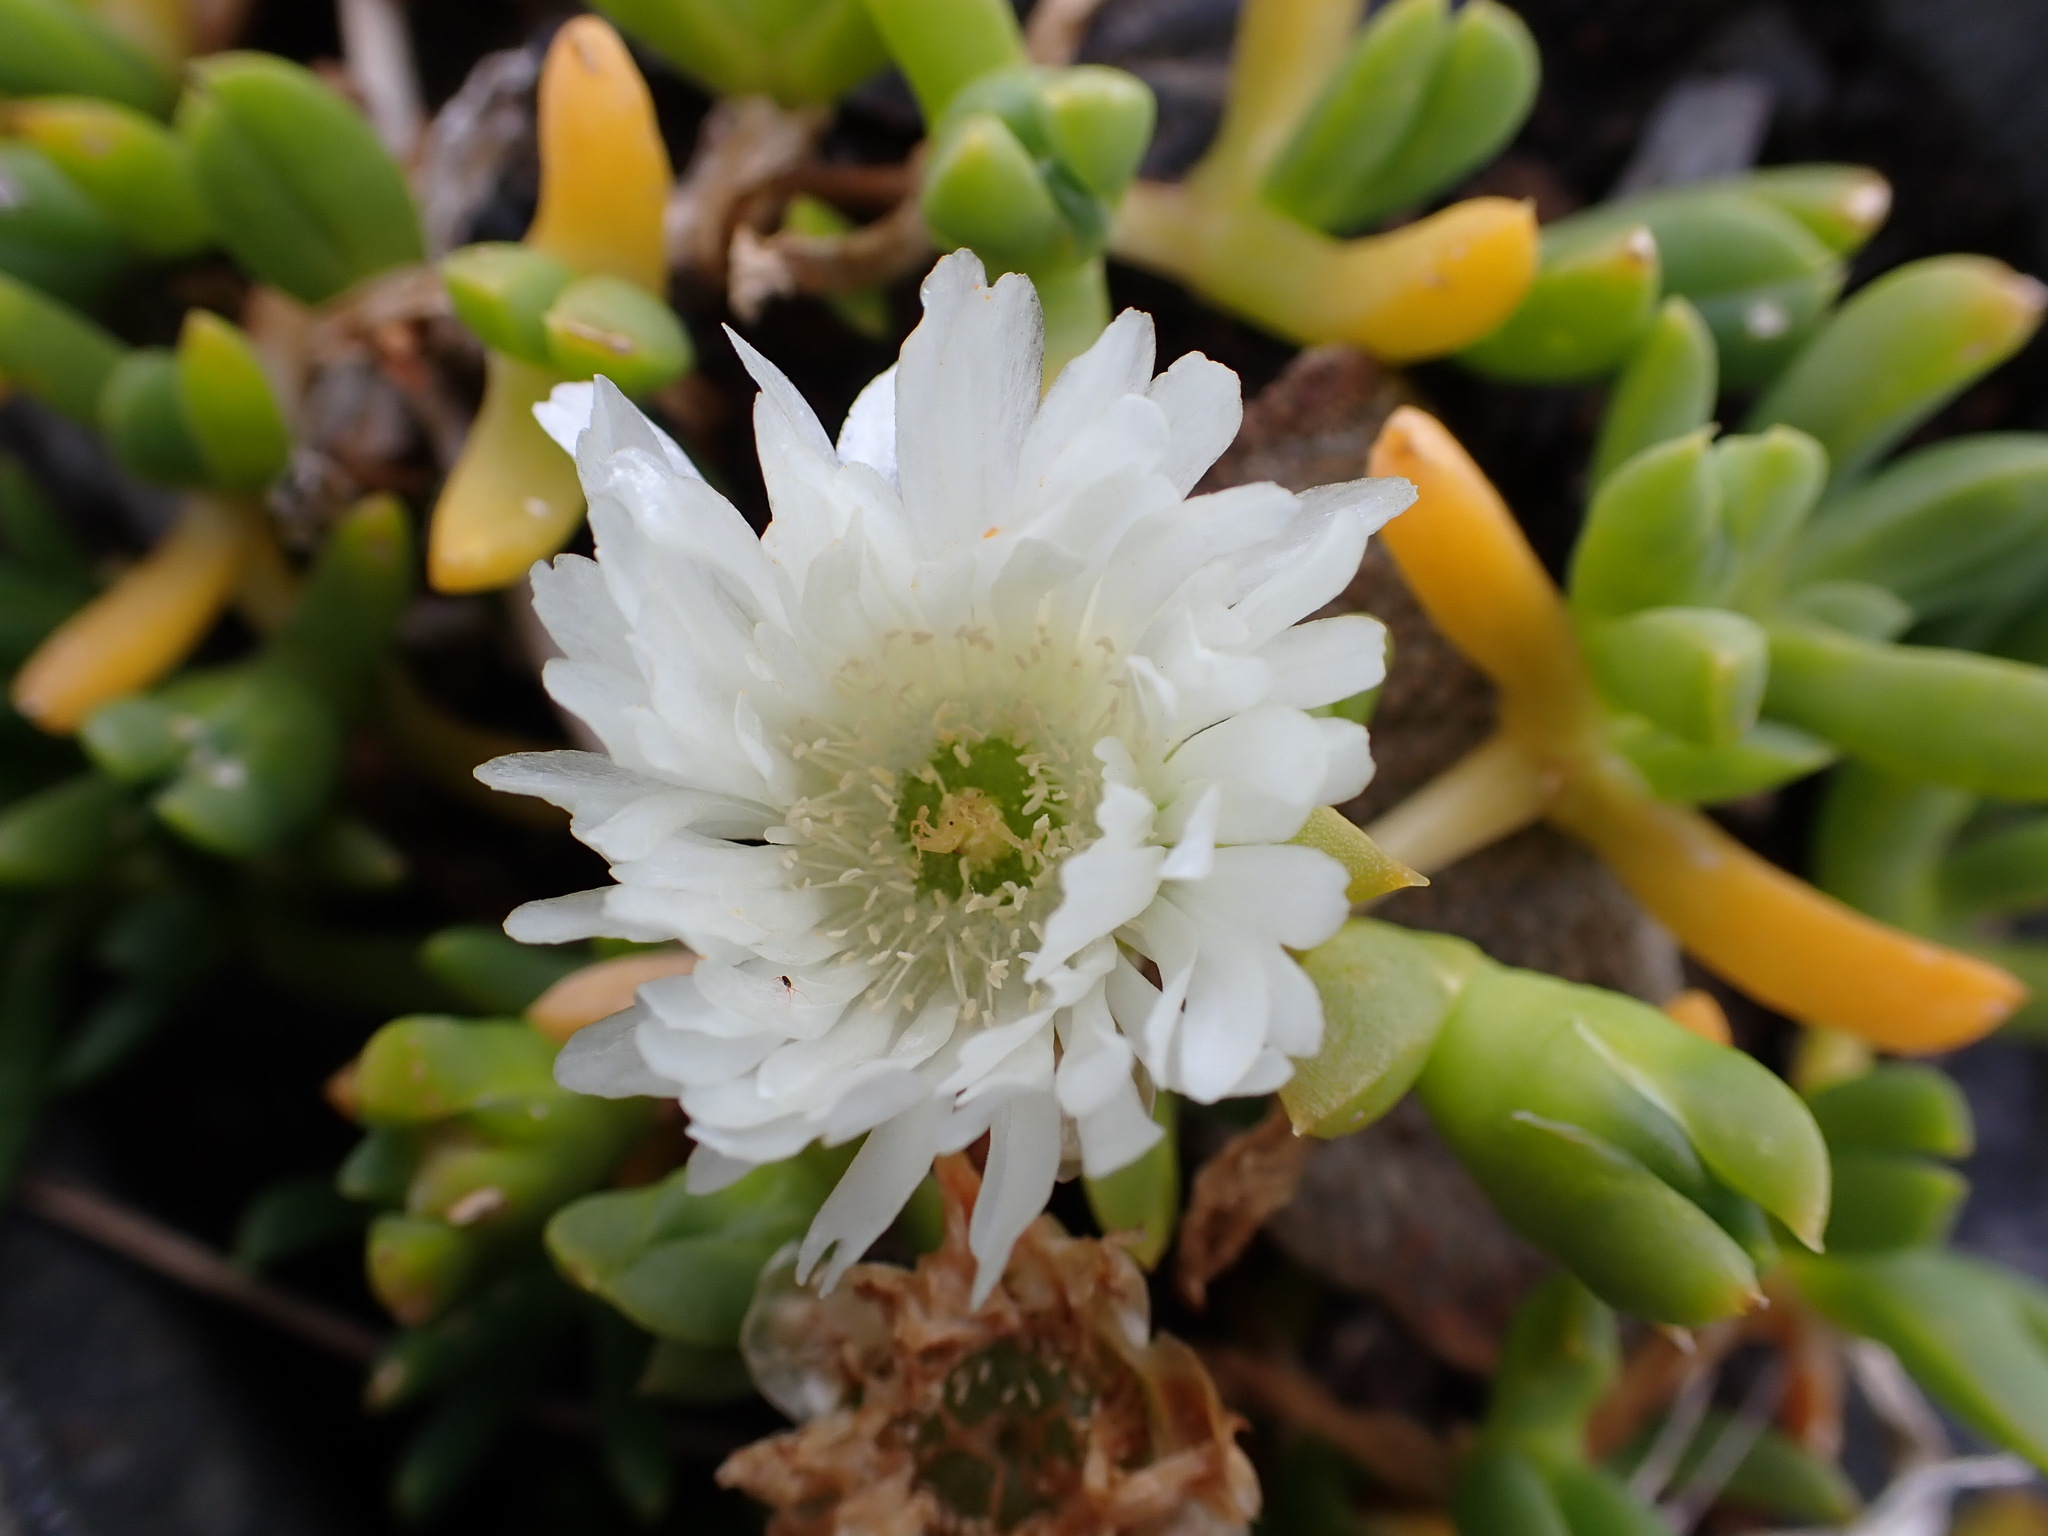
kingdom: Plantae
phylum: Tracheophyta
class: Magnoliopsida
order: Caryophyllales
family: Aizoaceae
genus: Disphyma
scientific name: Disphyma australe
